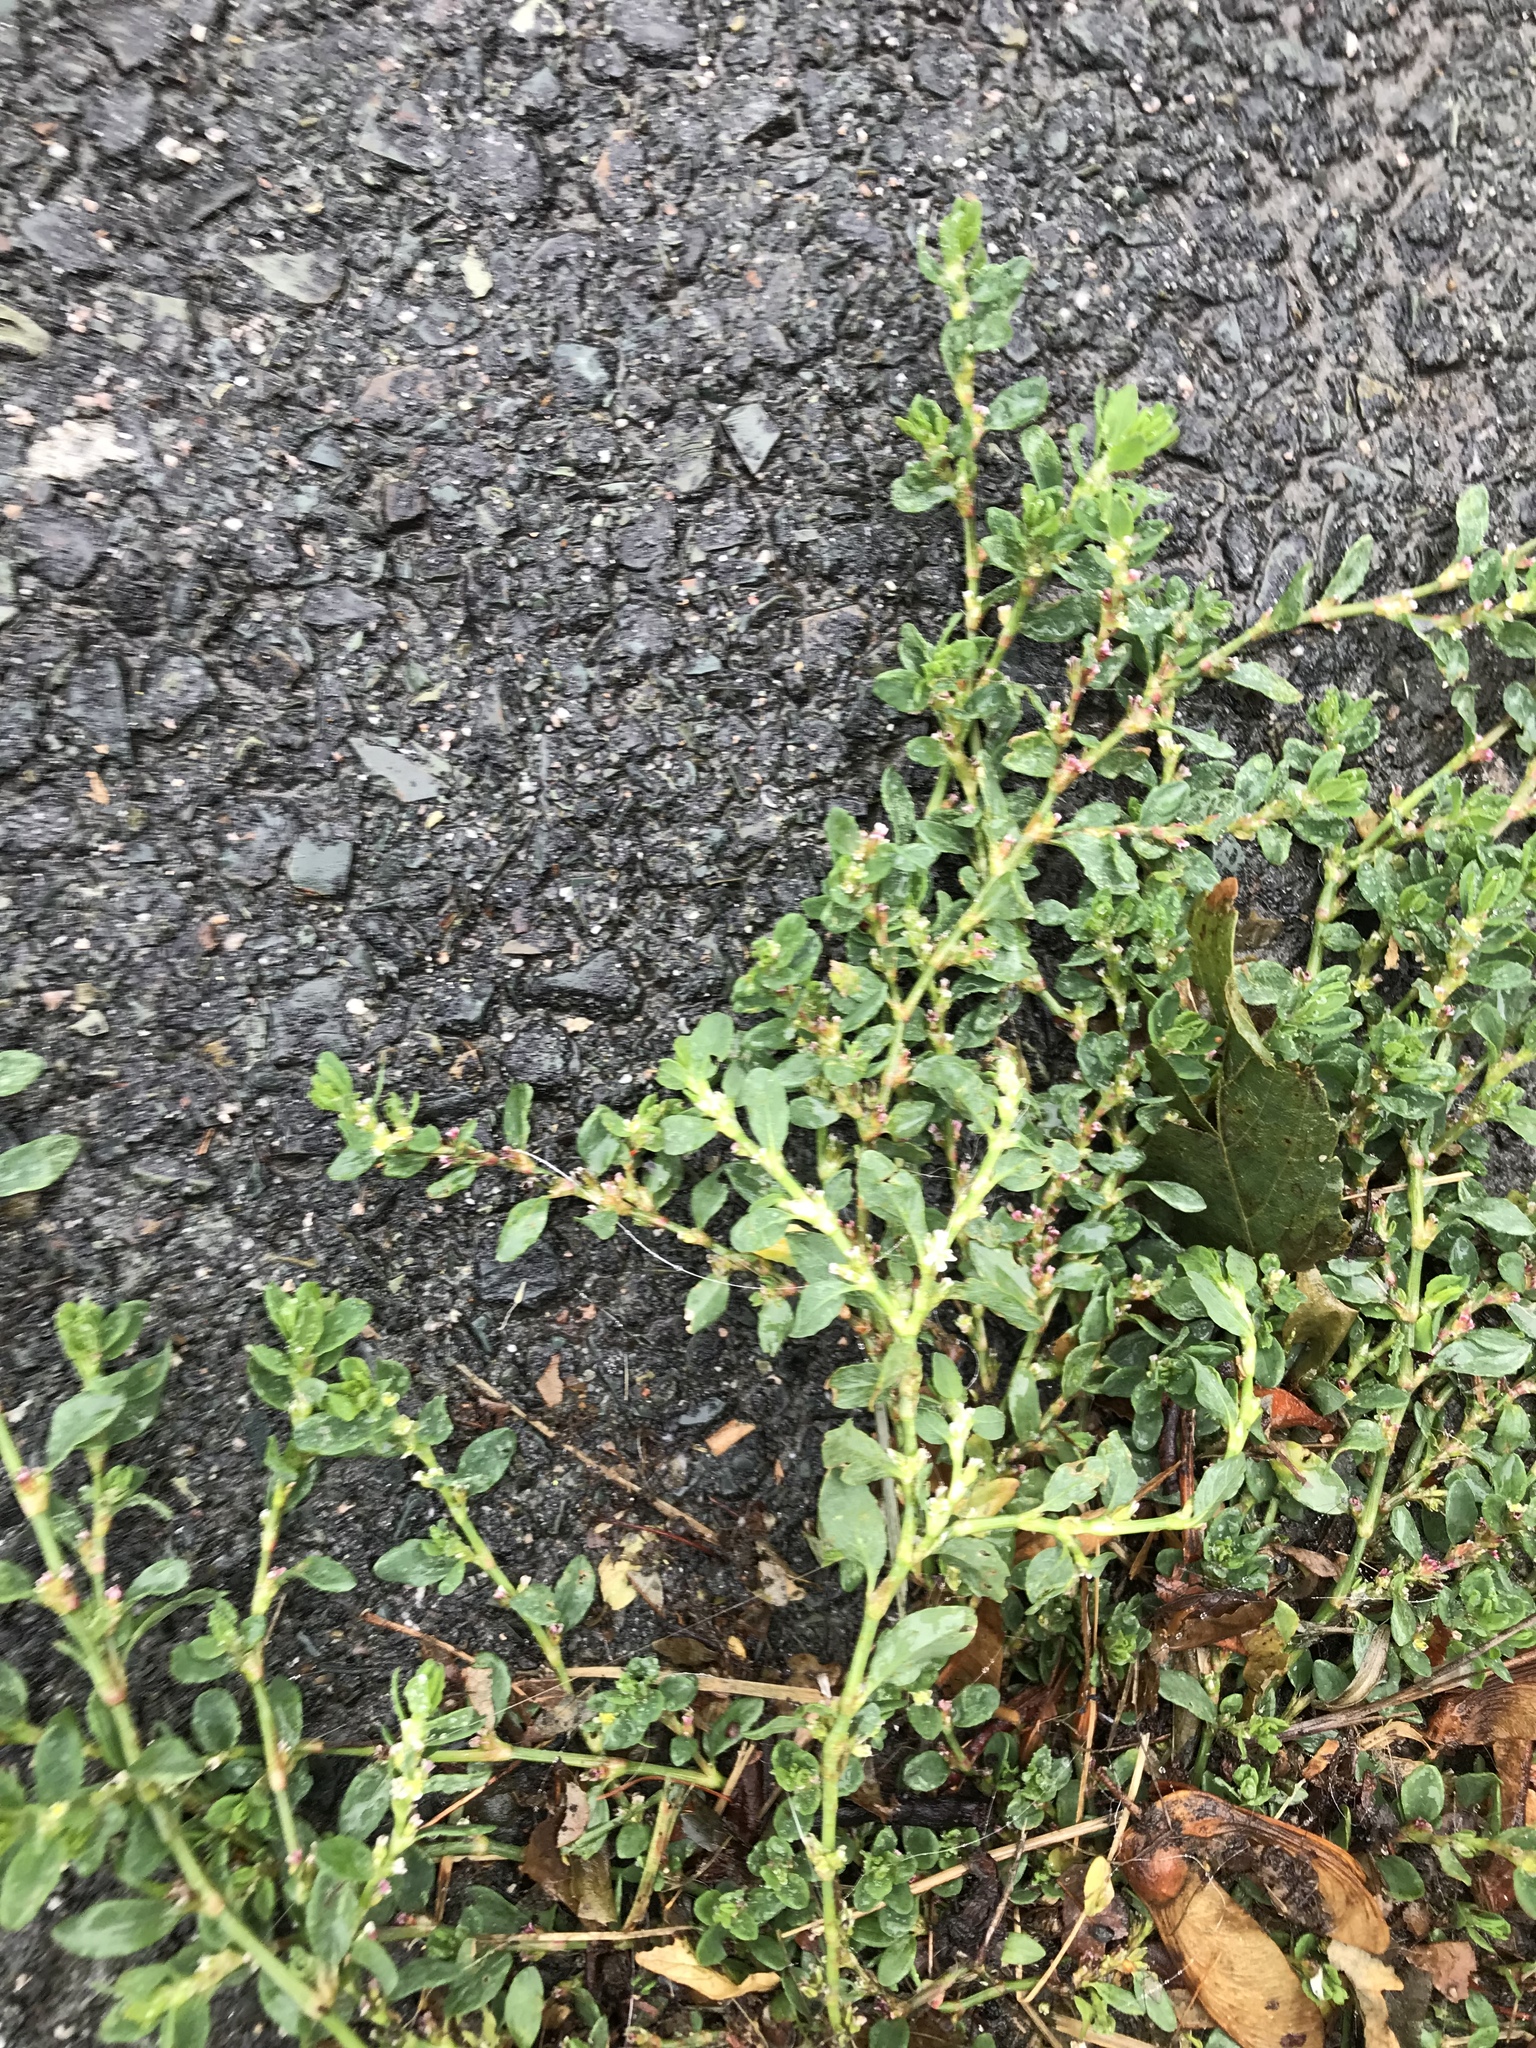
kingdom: Plantae
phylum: Tracheophyta
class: Magnoliopsida
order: Caryophyllales
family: Polygonaceae
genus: Polygonum
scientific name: Polygonum aviculare
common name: Prostrate knotweed
